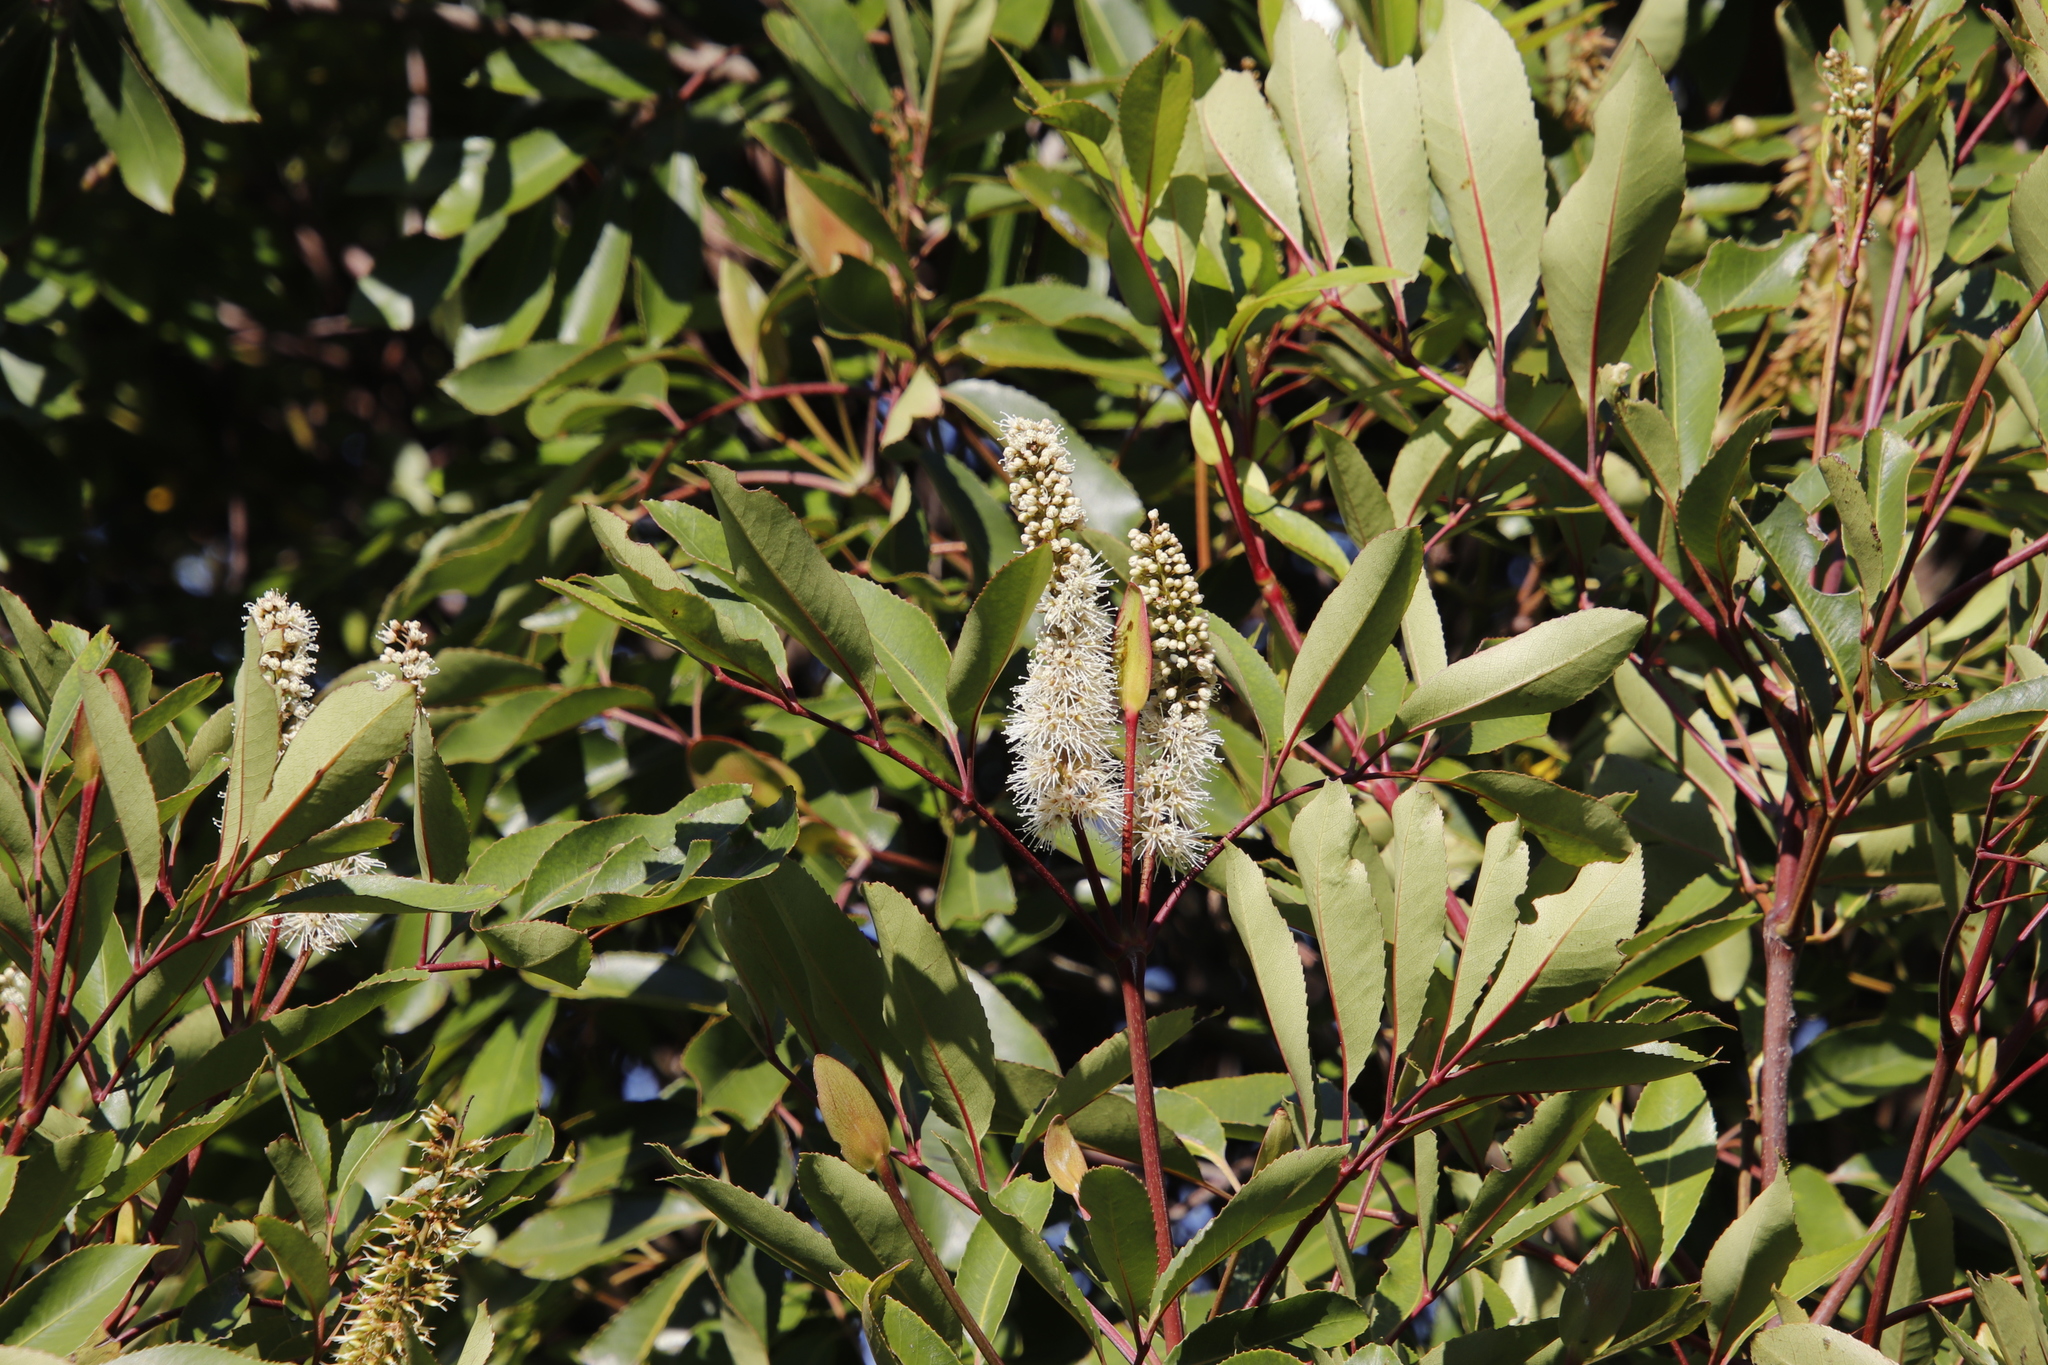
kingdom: Plantae
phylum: Tracheophyta
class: Magnoliopsida
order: Oxalidales
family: Cunoniaceae
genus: Cunonia
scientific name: Cunonia capensis
